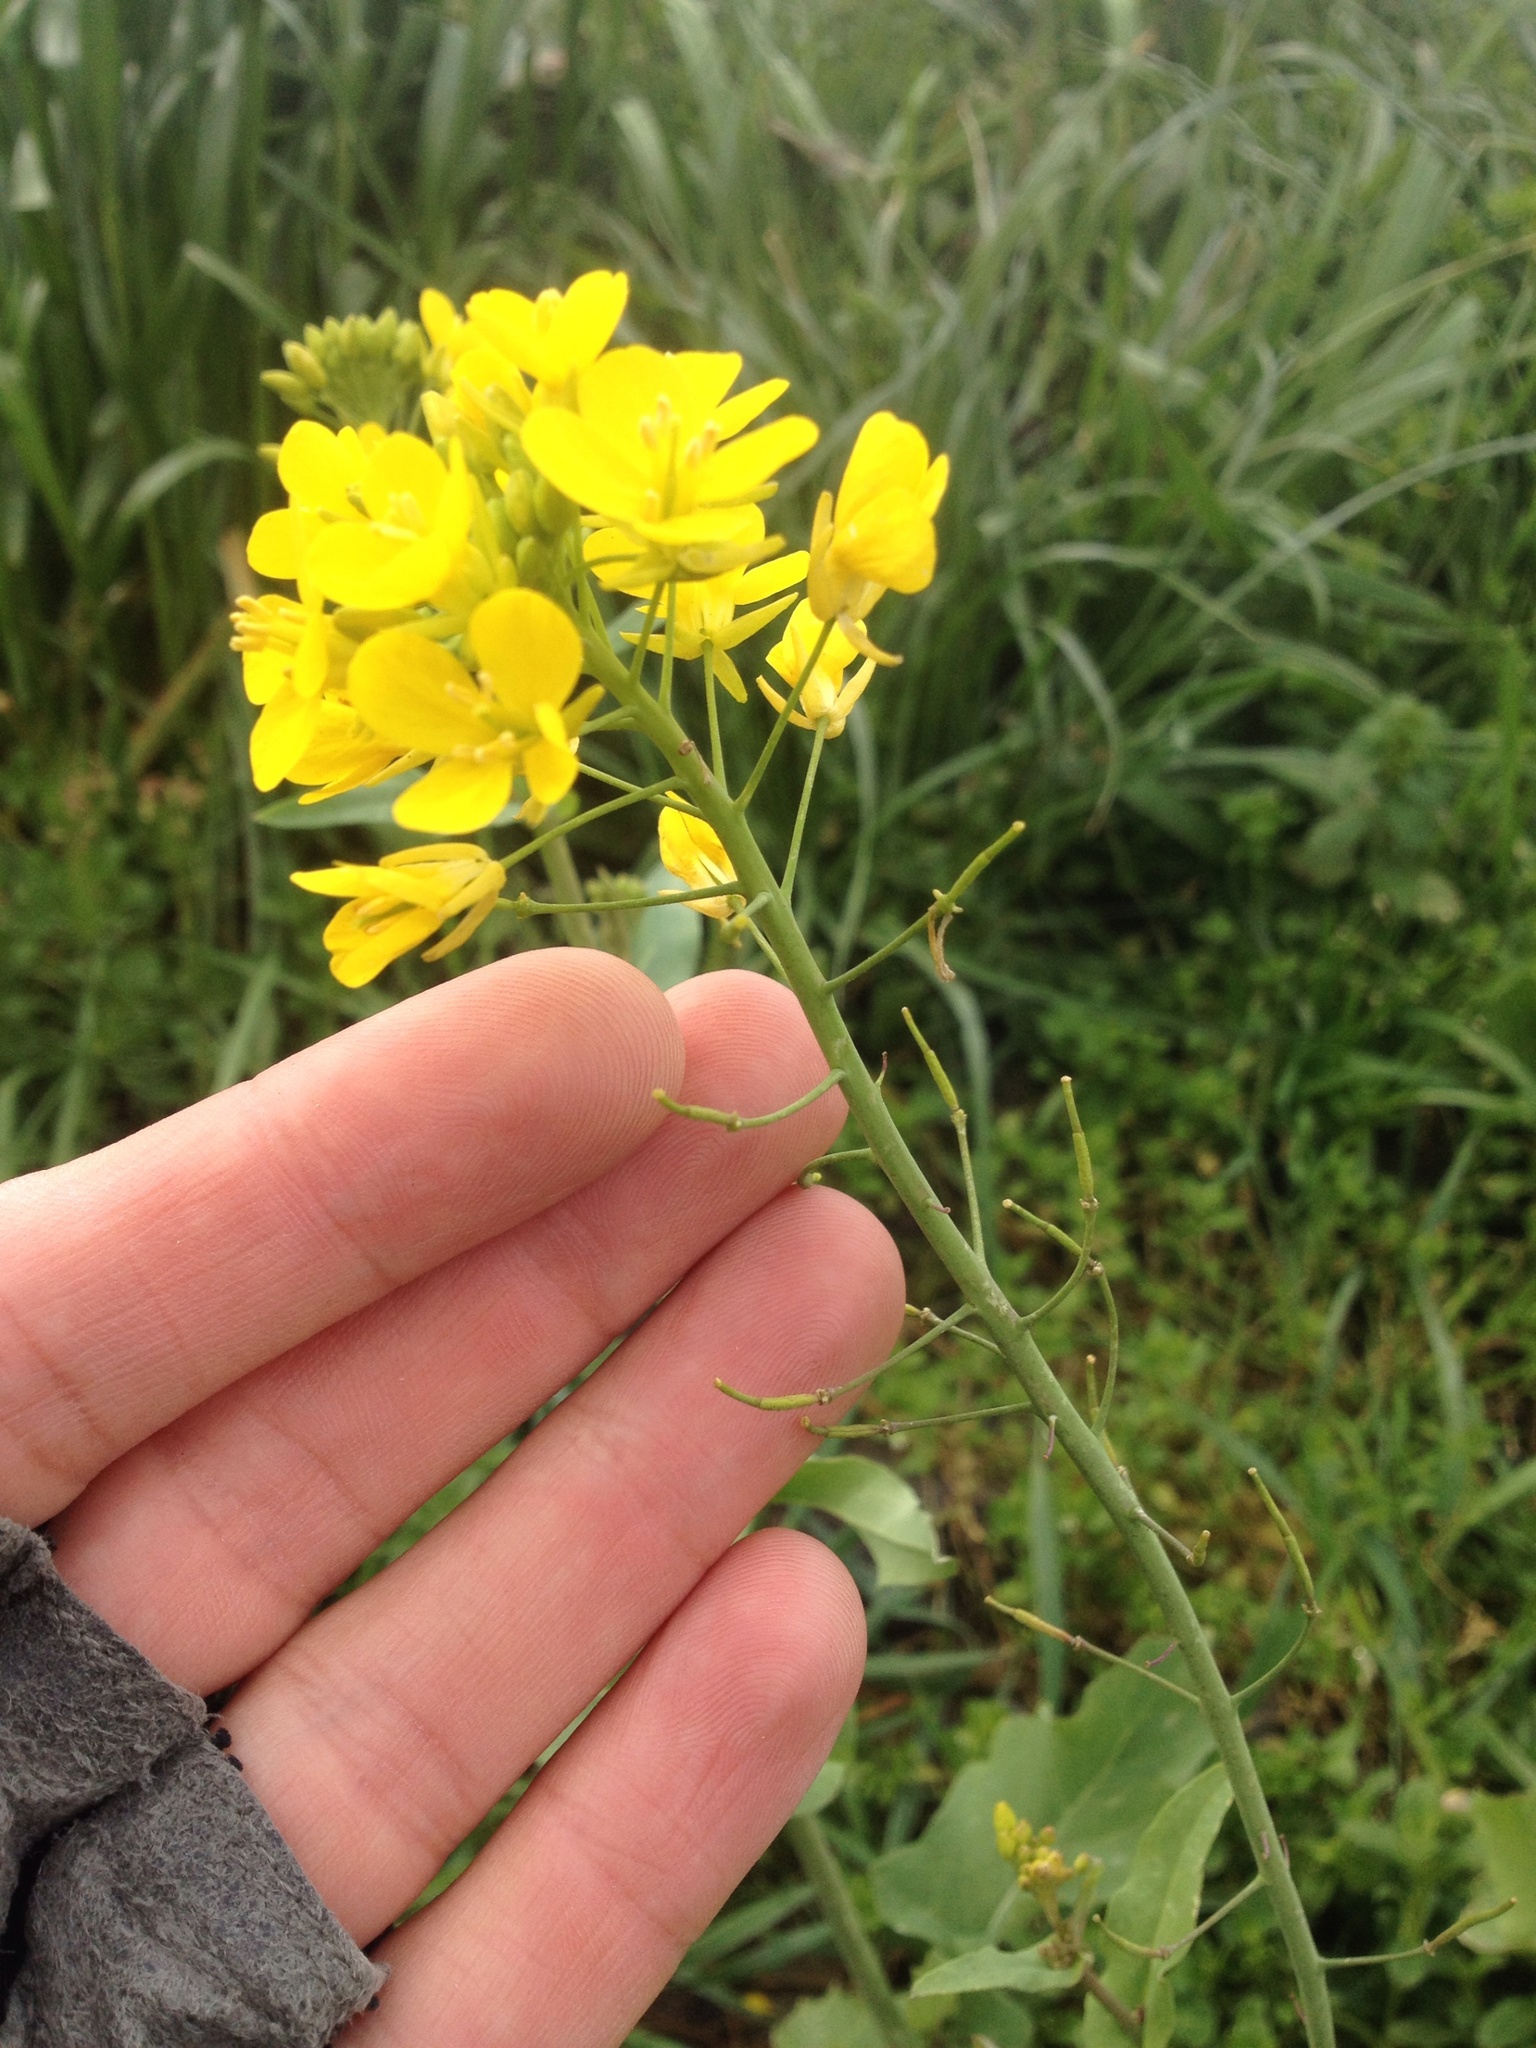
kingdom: Plantae
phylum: Tracheophyta
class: Magnoliopsida
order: Brassicales
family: Brassicaceae
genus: Brassica
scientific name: Brassica oleracea
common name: Cabbage
